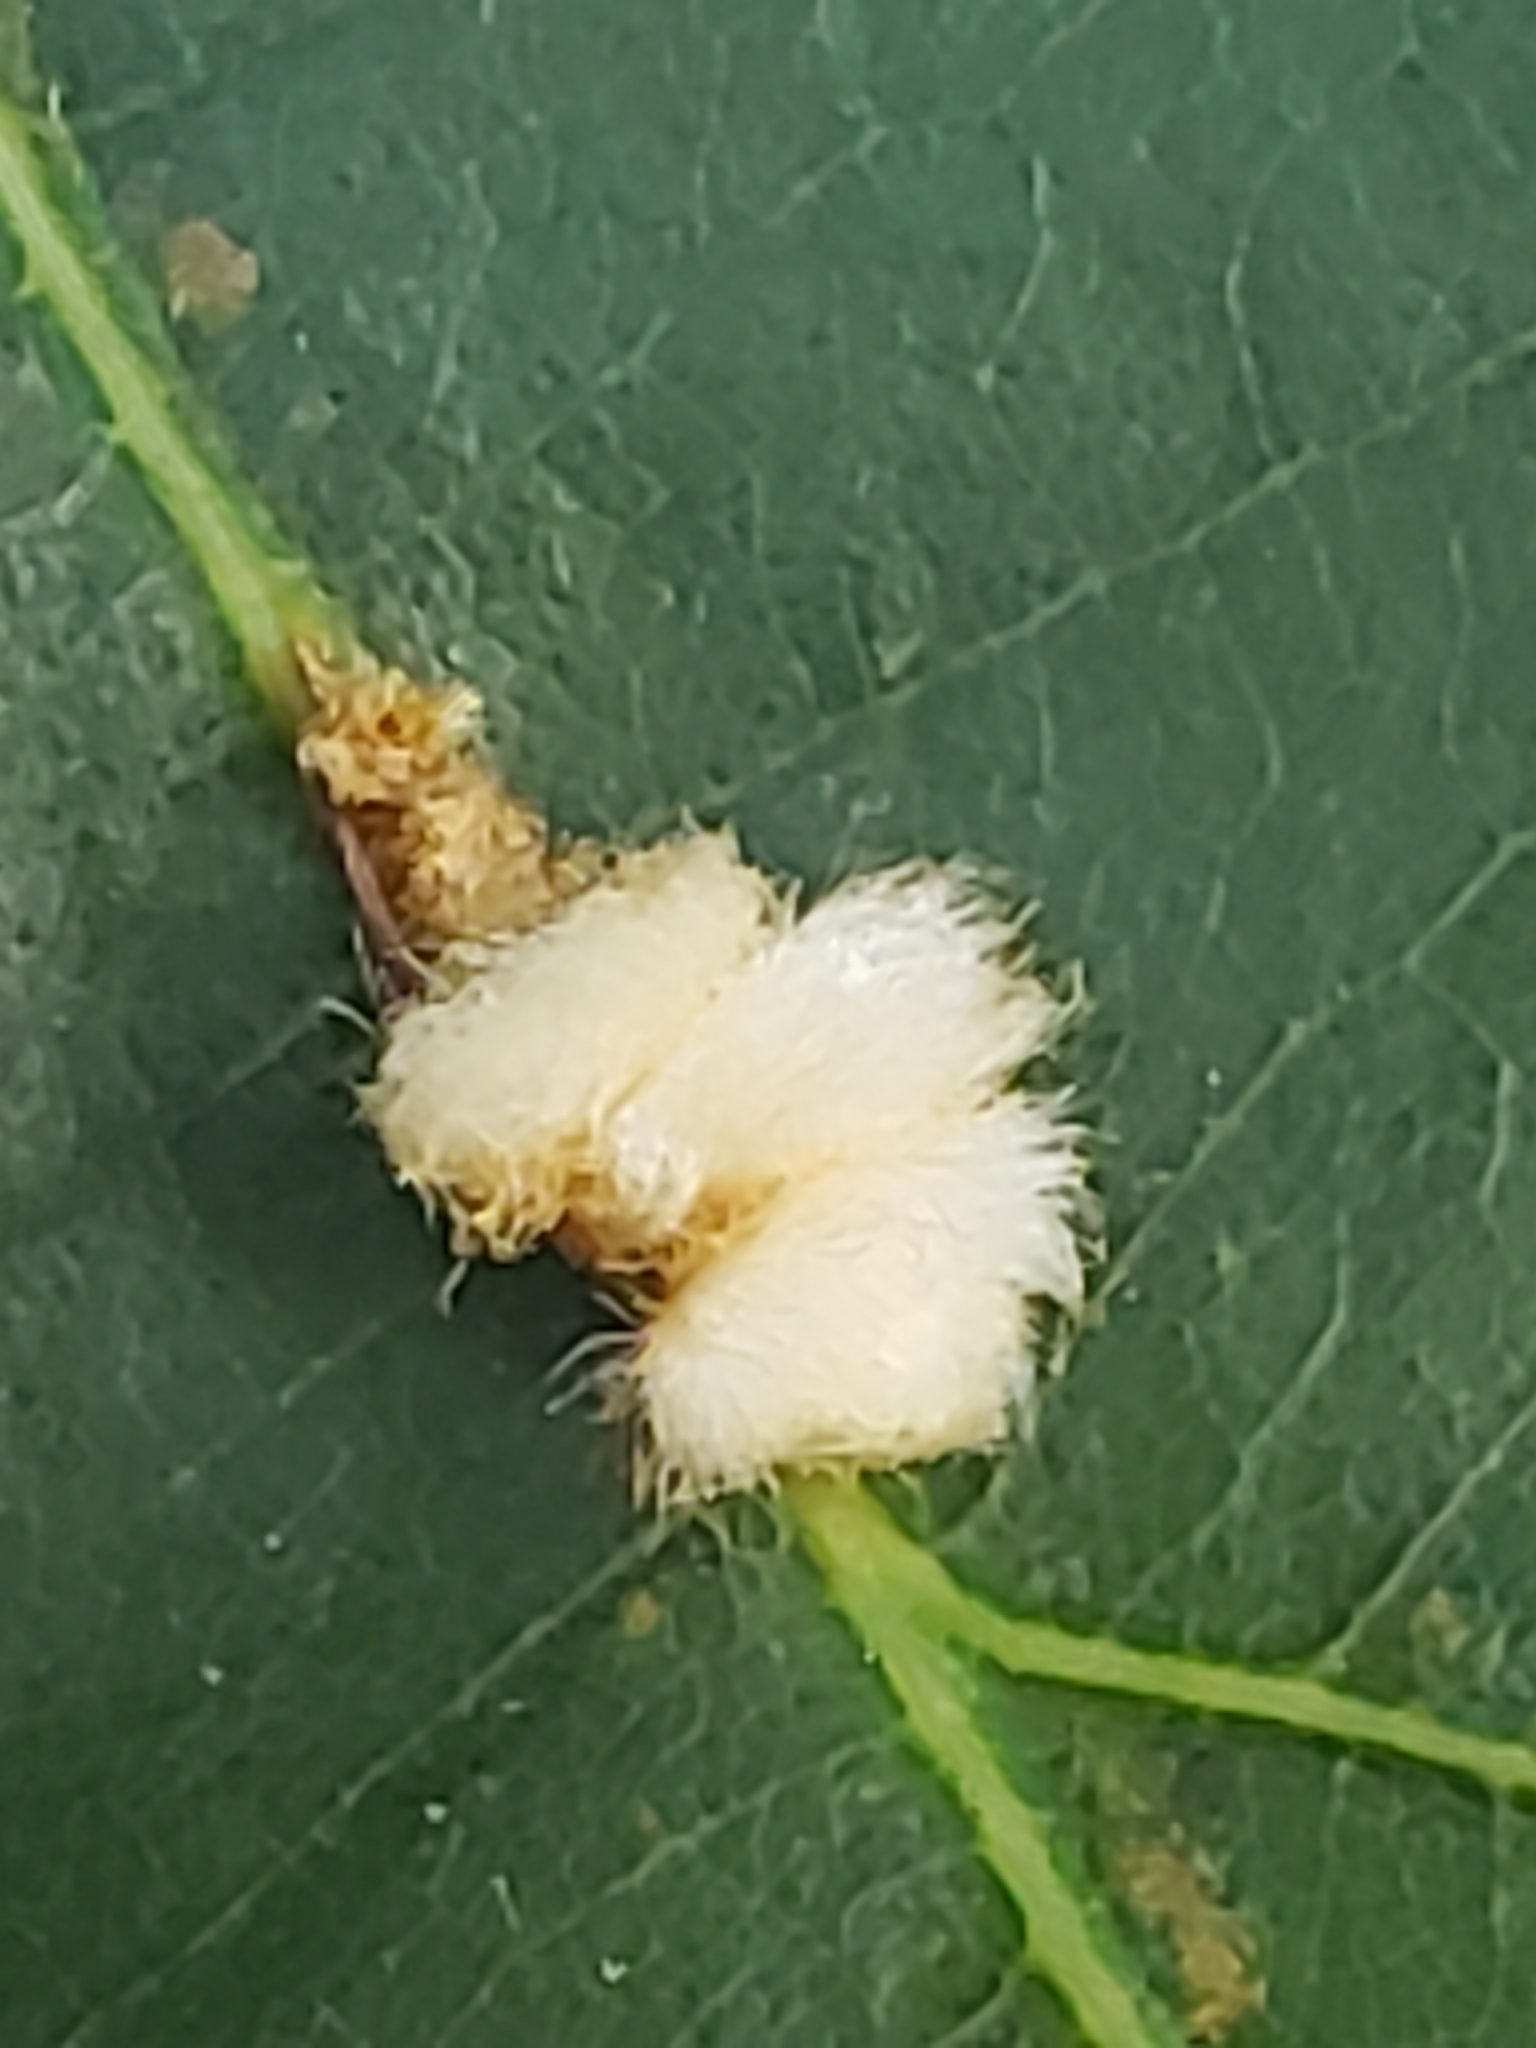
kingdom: Animalia
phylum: Arthropoda
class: Insecta
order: Hymenoptera
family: Cynipidae
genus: Andricus
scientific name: Andricus
